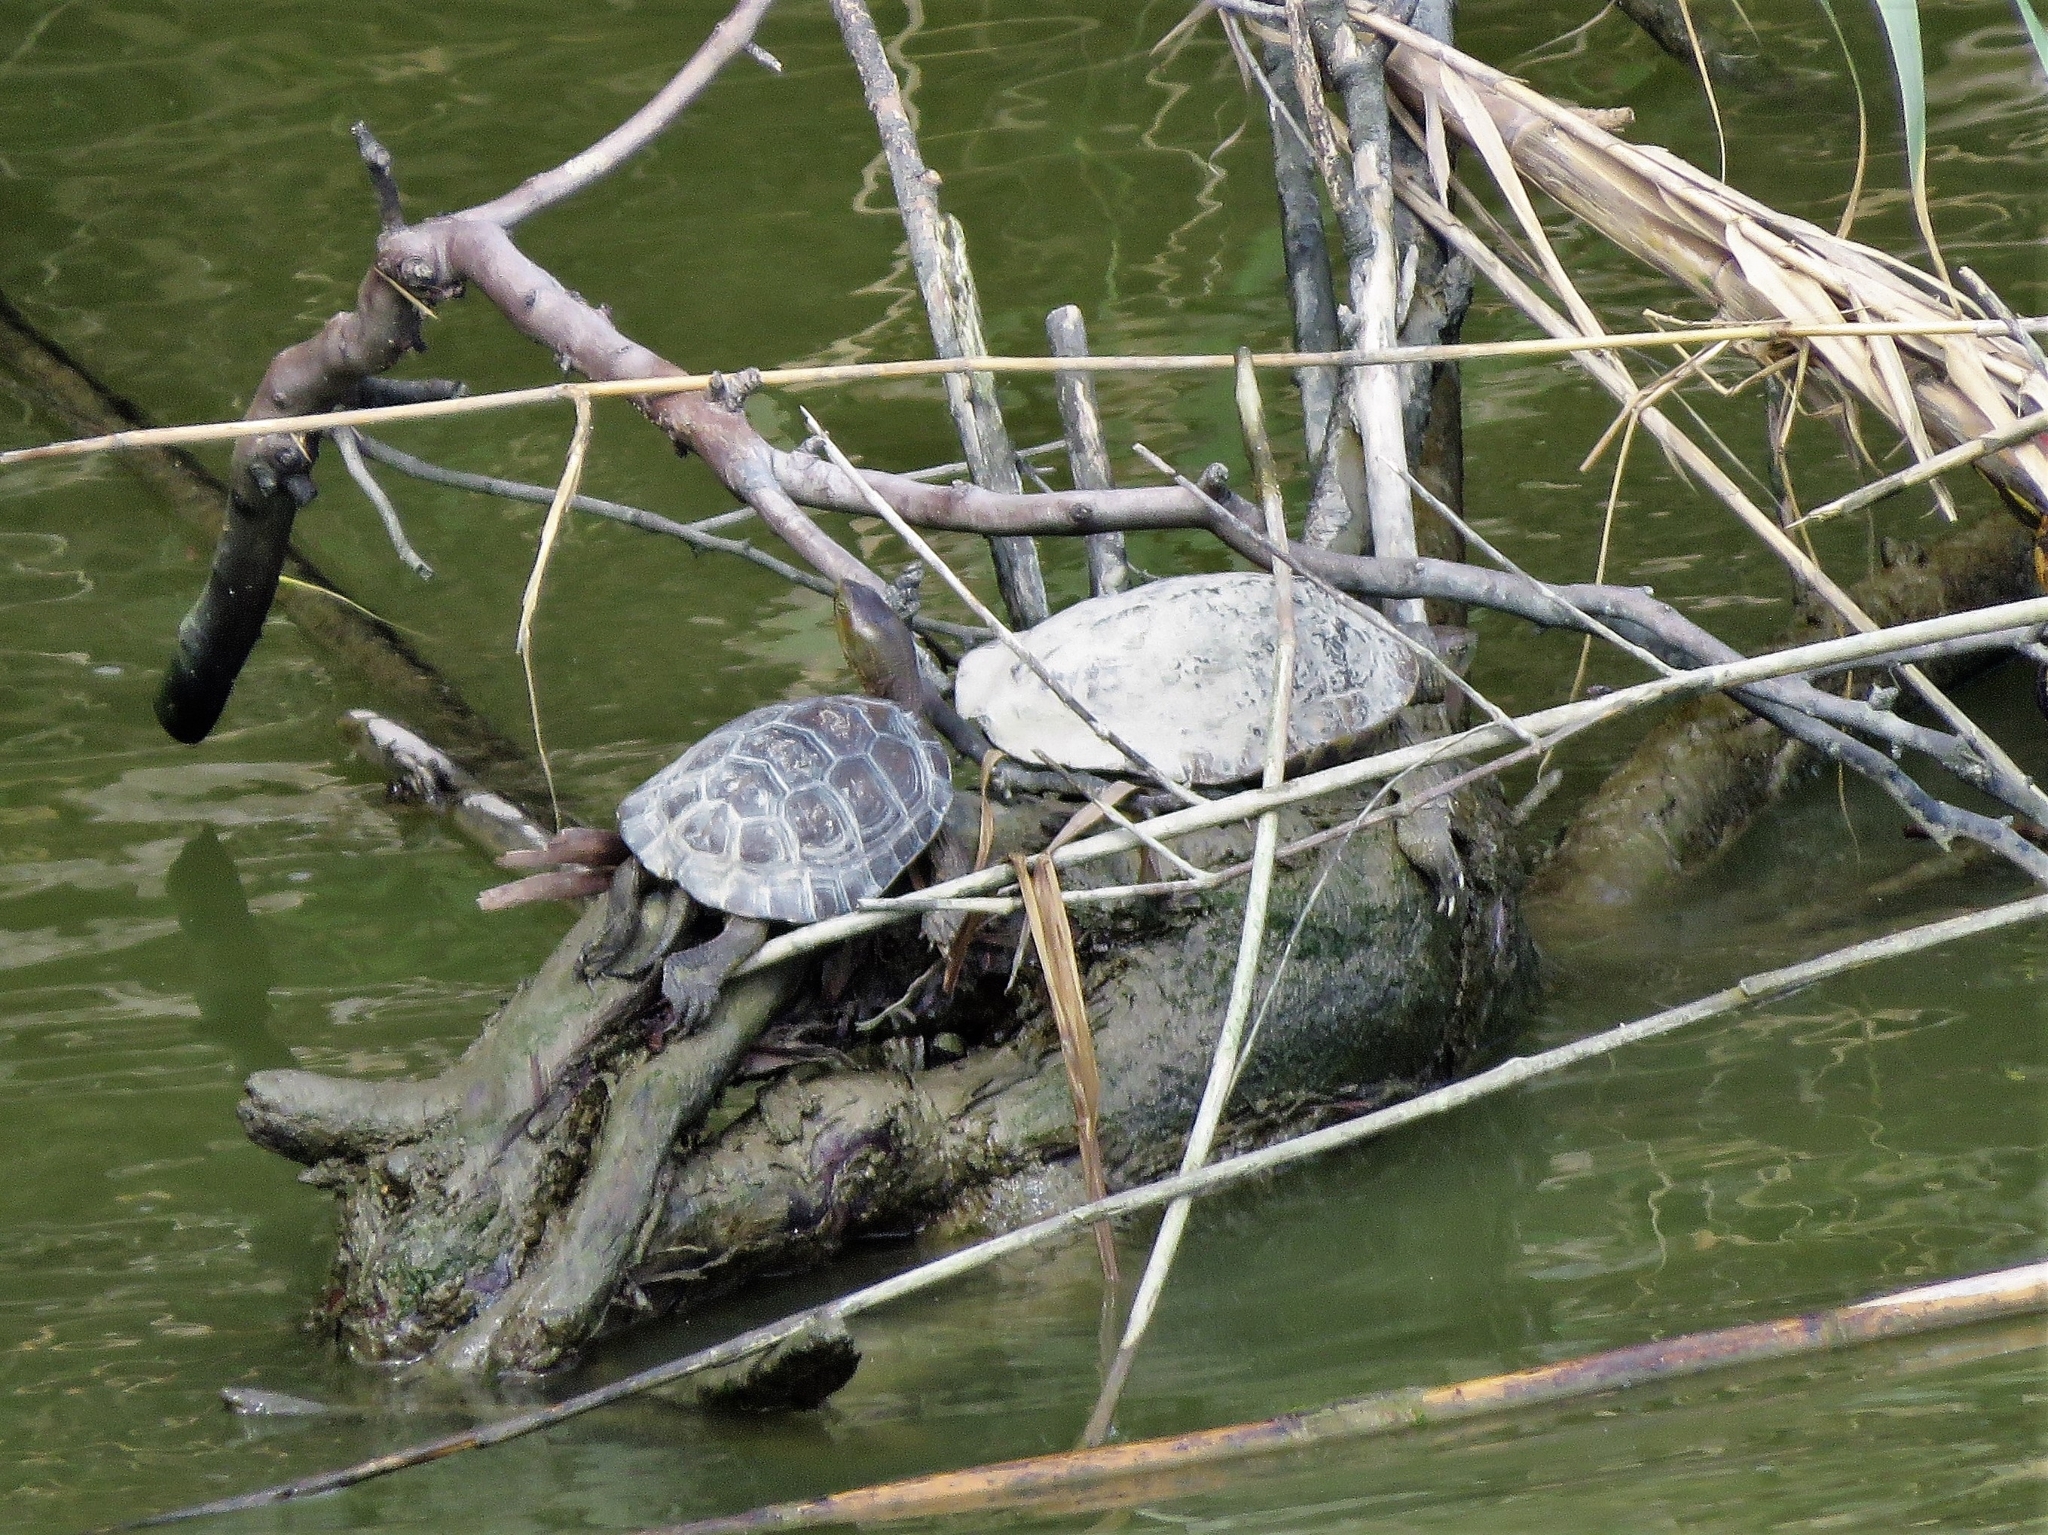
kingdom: Animalia
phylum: Chordata
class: Testudines
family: Geoemydidae
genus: Mauremys
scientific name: Mauremys leprosa
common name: Mediterranean pond turtle
